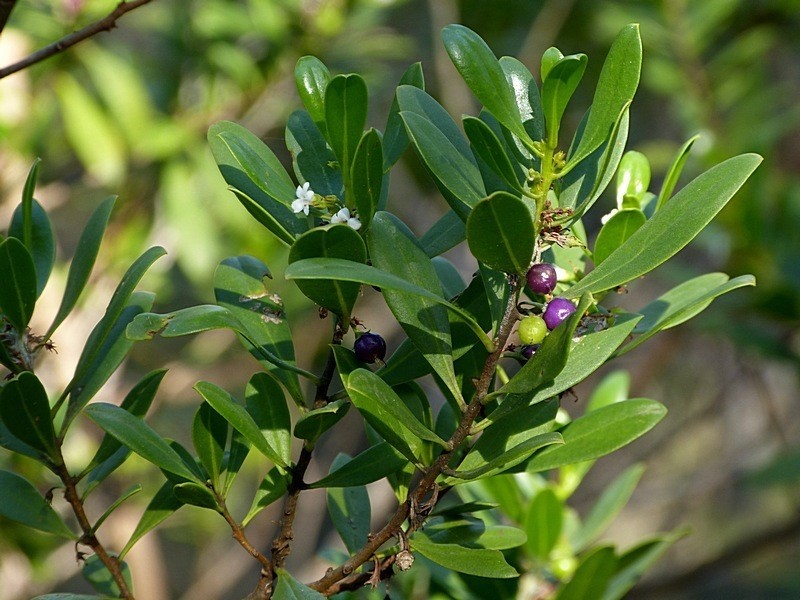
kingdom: Plantae
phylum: Tracheophyta
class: Magnoliopsida
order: Lamiales
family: Scrophulariaceae
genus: Myoporum
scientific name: Myoporum boninense
